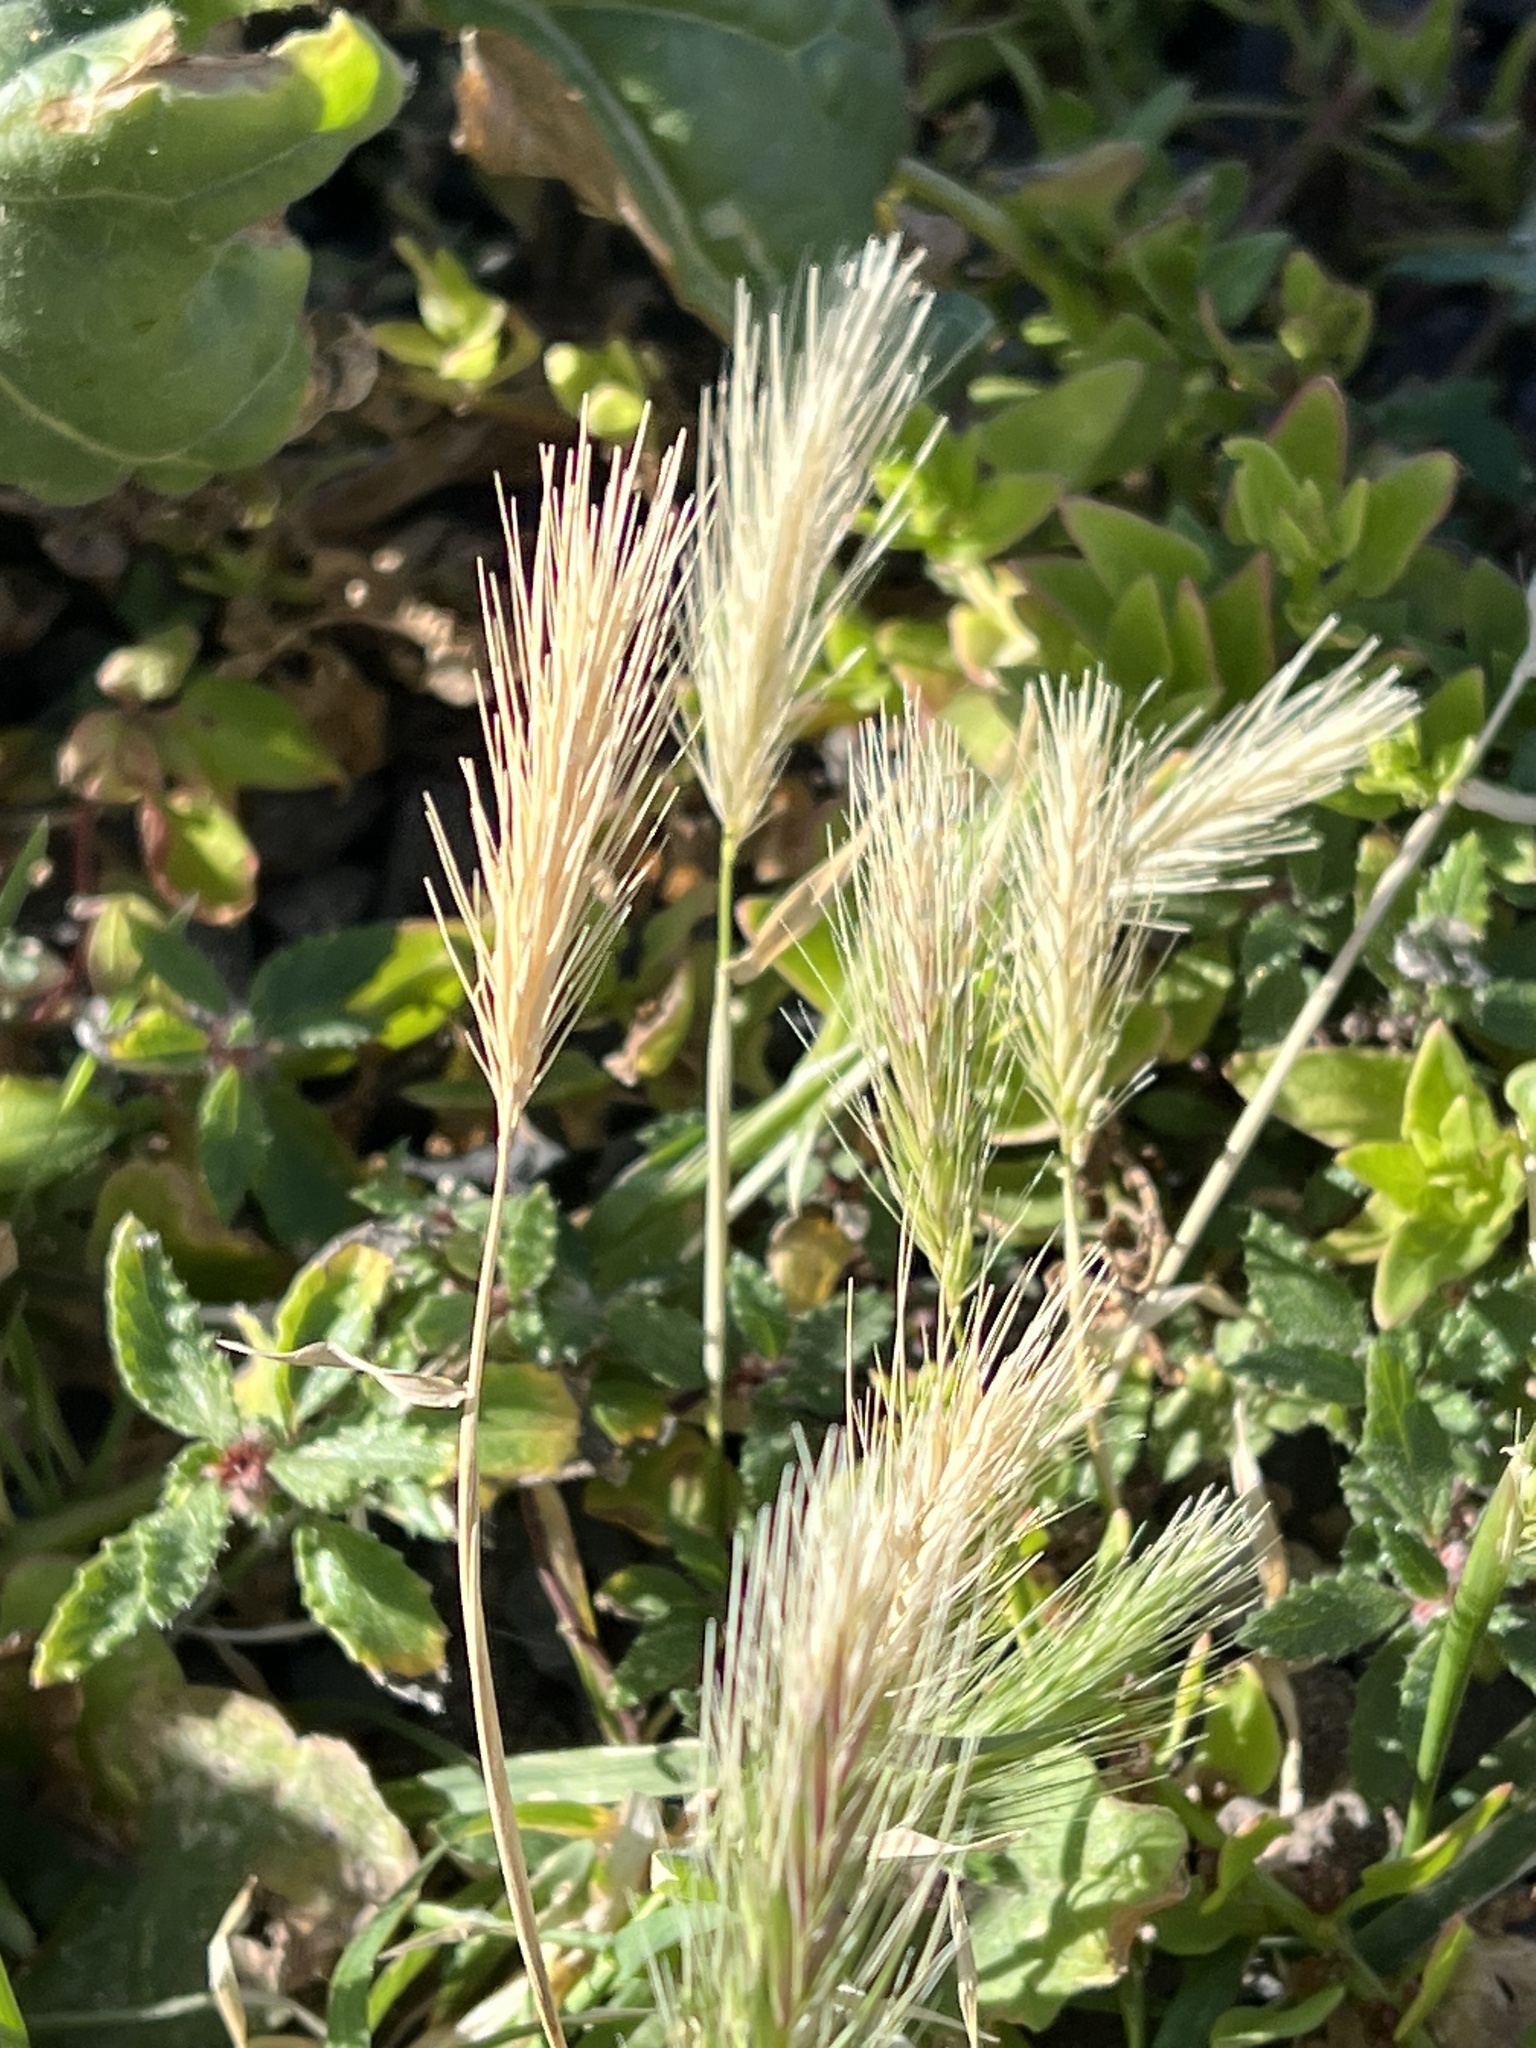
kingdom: Plantae
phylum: Tracheophyta
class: Liliopsida
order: Poales
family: Poaceae
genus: Hordeum
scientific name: Hordeum murinum
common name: Wall barley
